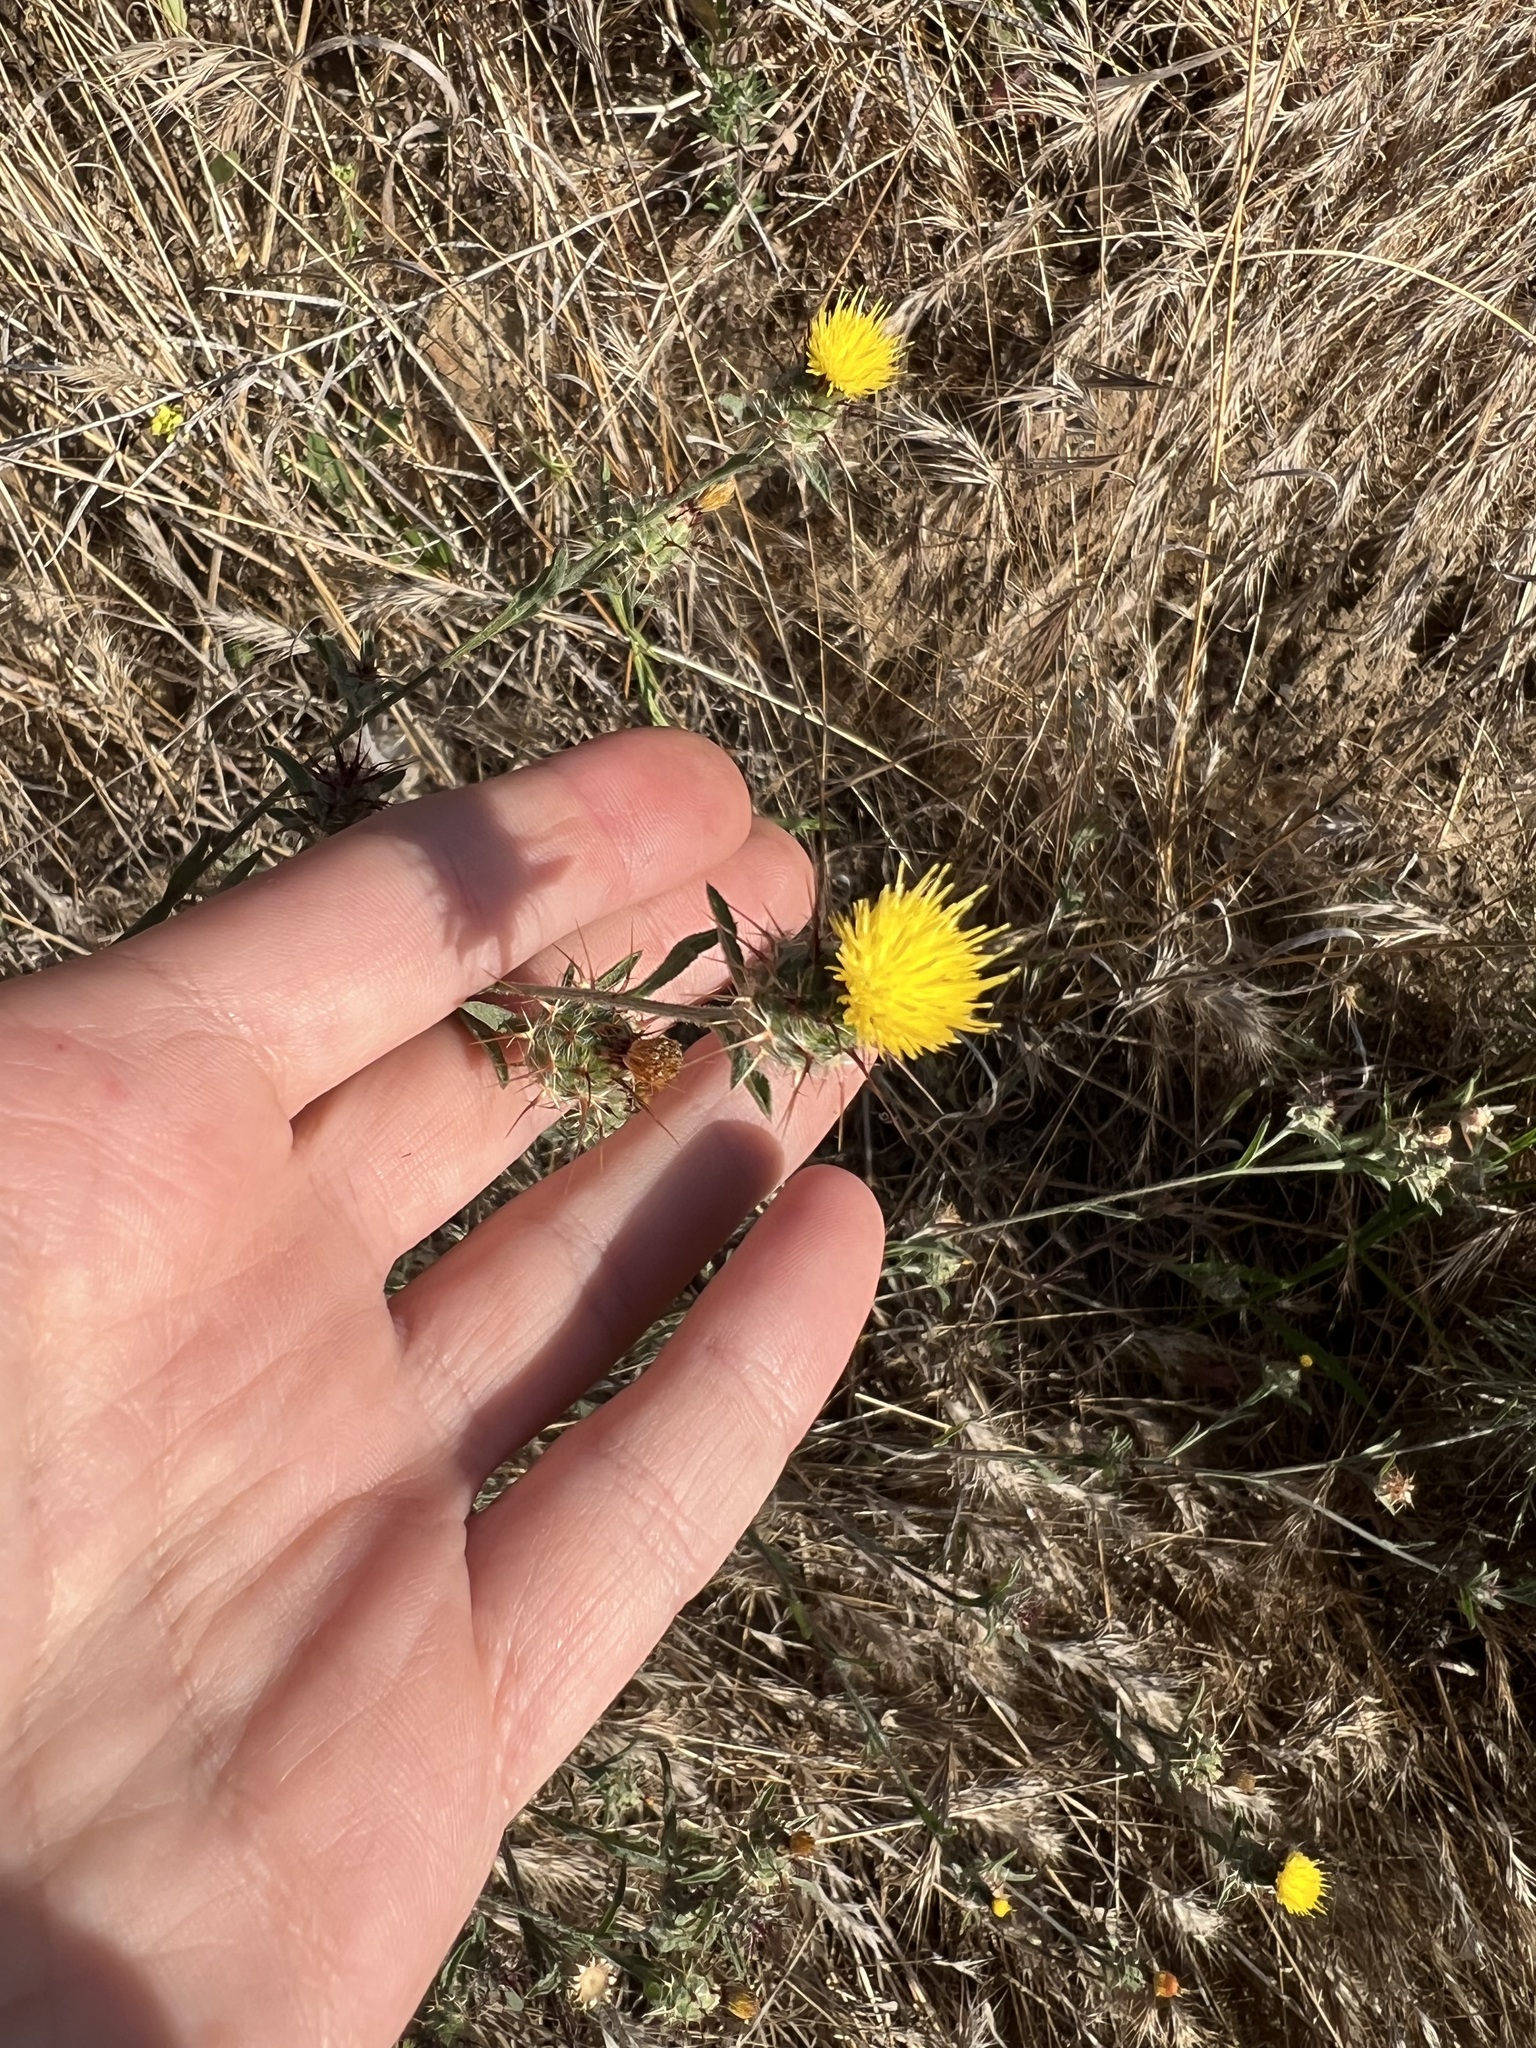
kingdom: Plantae
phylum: Tracheophyta
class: Magnoliopsida
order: Asterales
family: Asteraceae
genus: Centaurea
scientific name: Centaurea melitensis
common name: Maltese star-thistle
